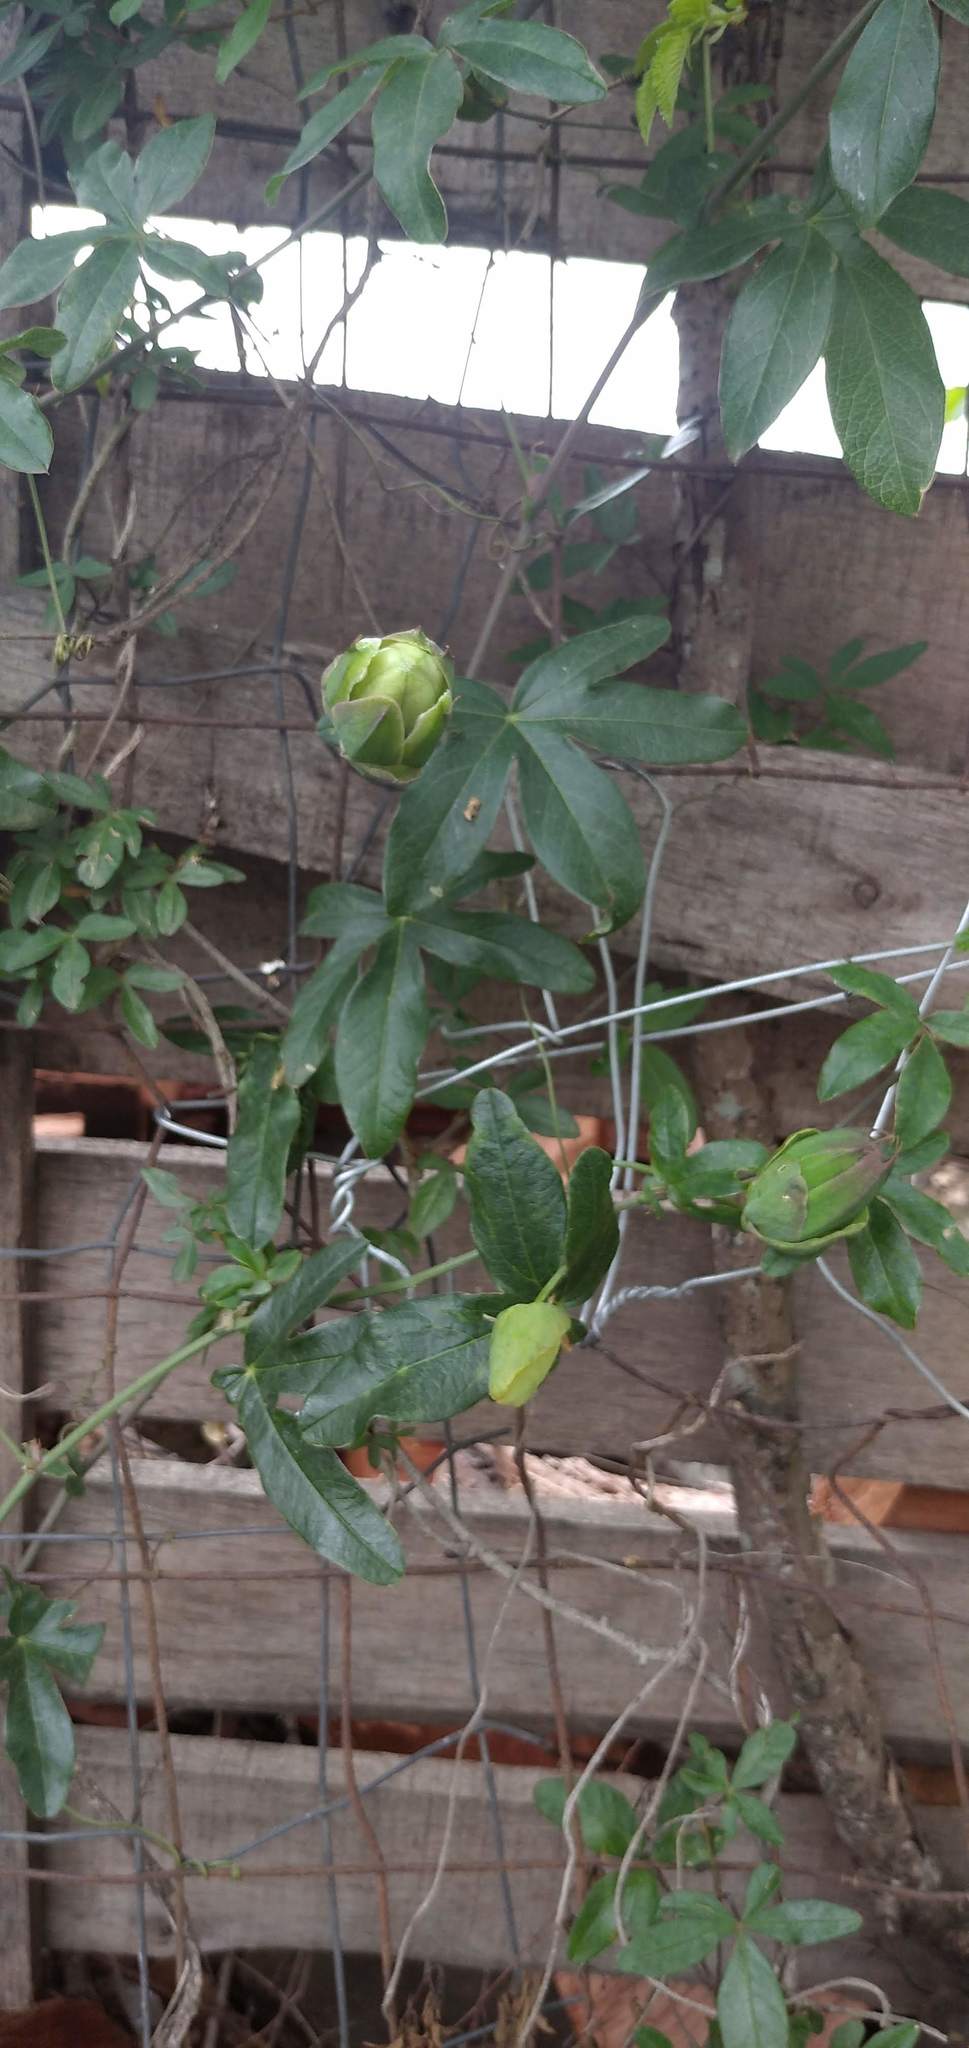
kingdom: Plantae
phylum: Tracheophyta
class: Magnoliopsida
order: Malpighiales
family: Passifloraceae
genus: Passiflora
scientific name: Passiflora caerulea
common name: Blue passionflower
